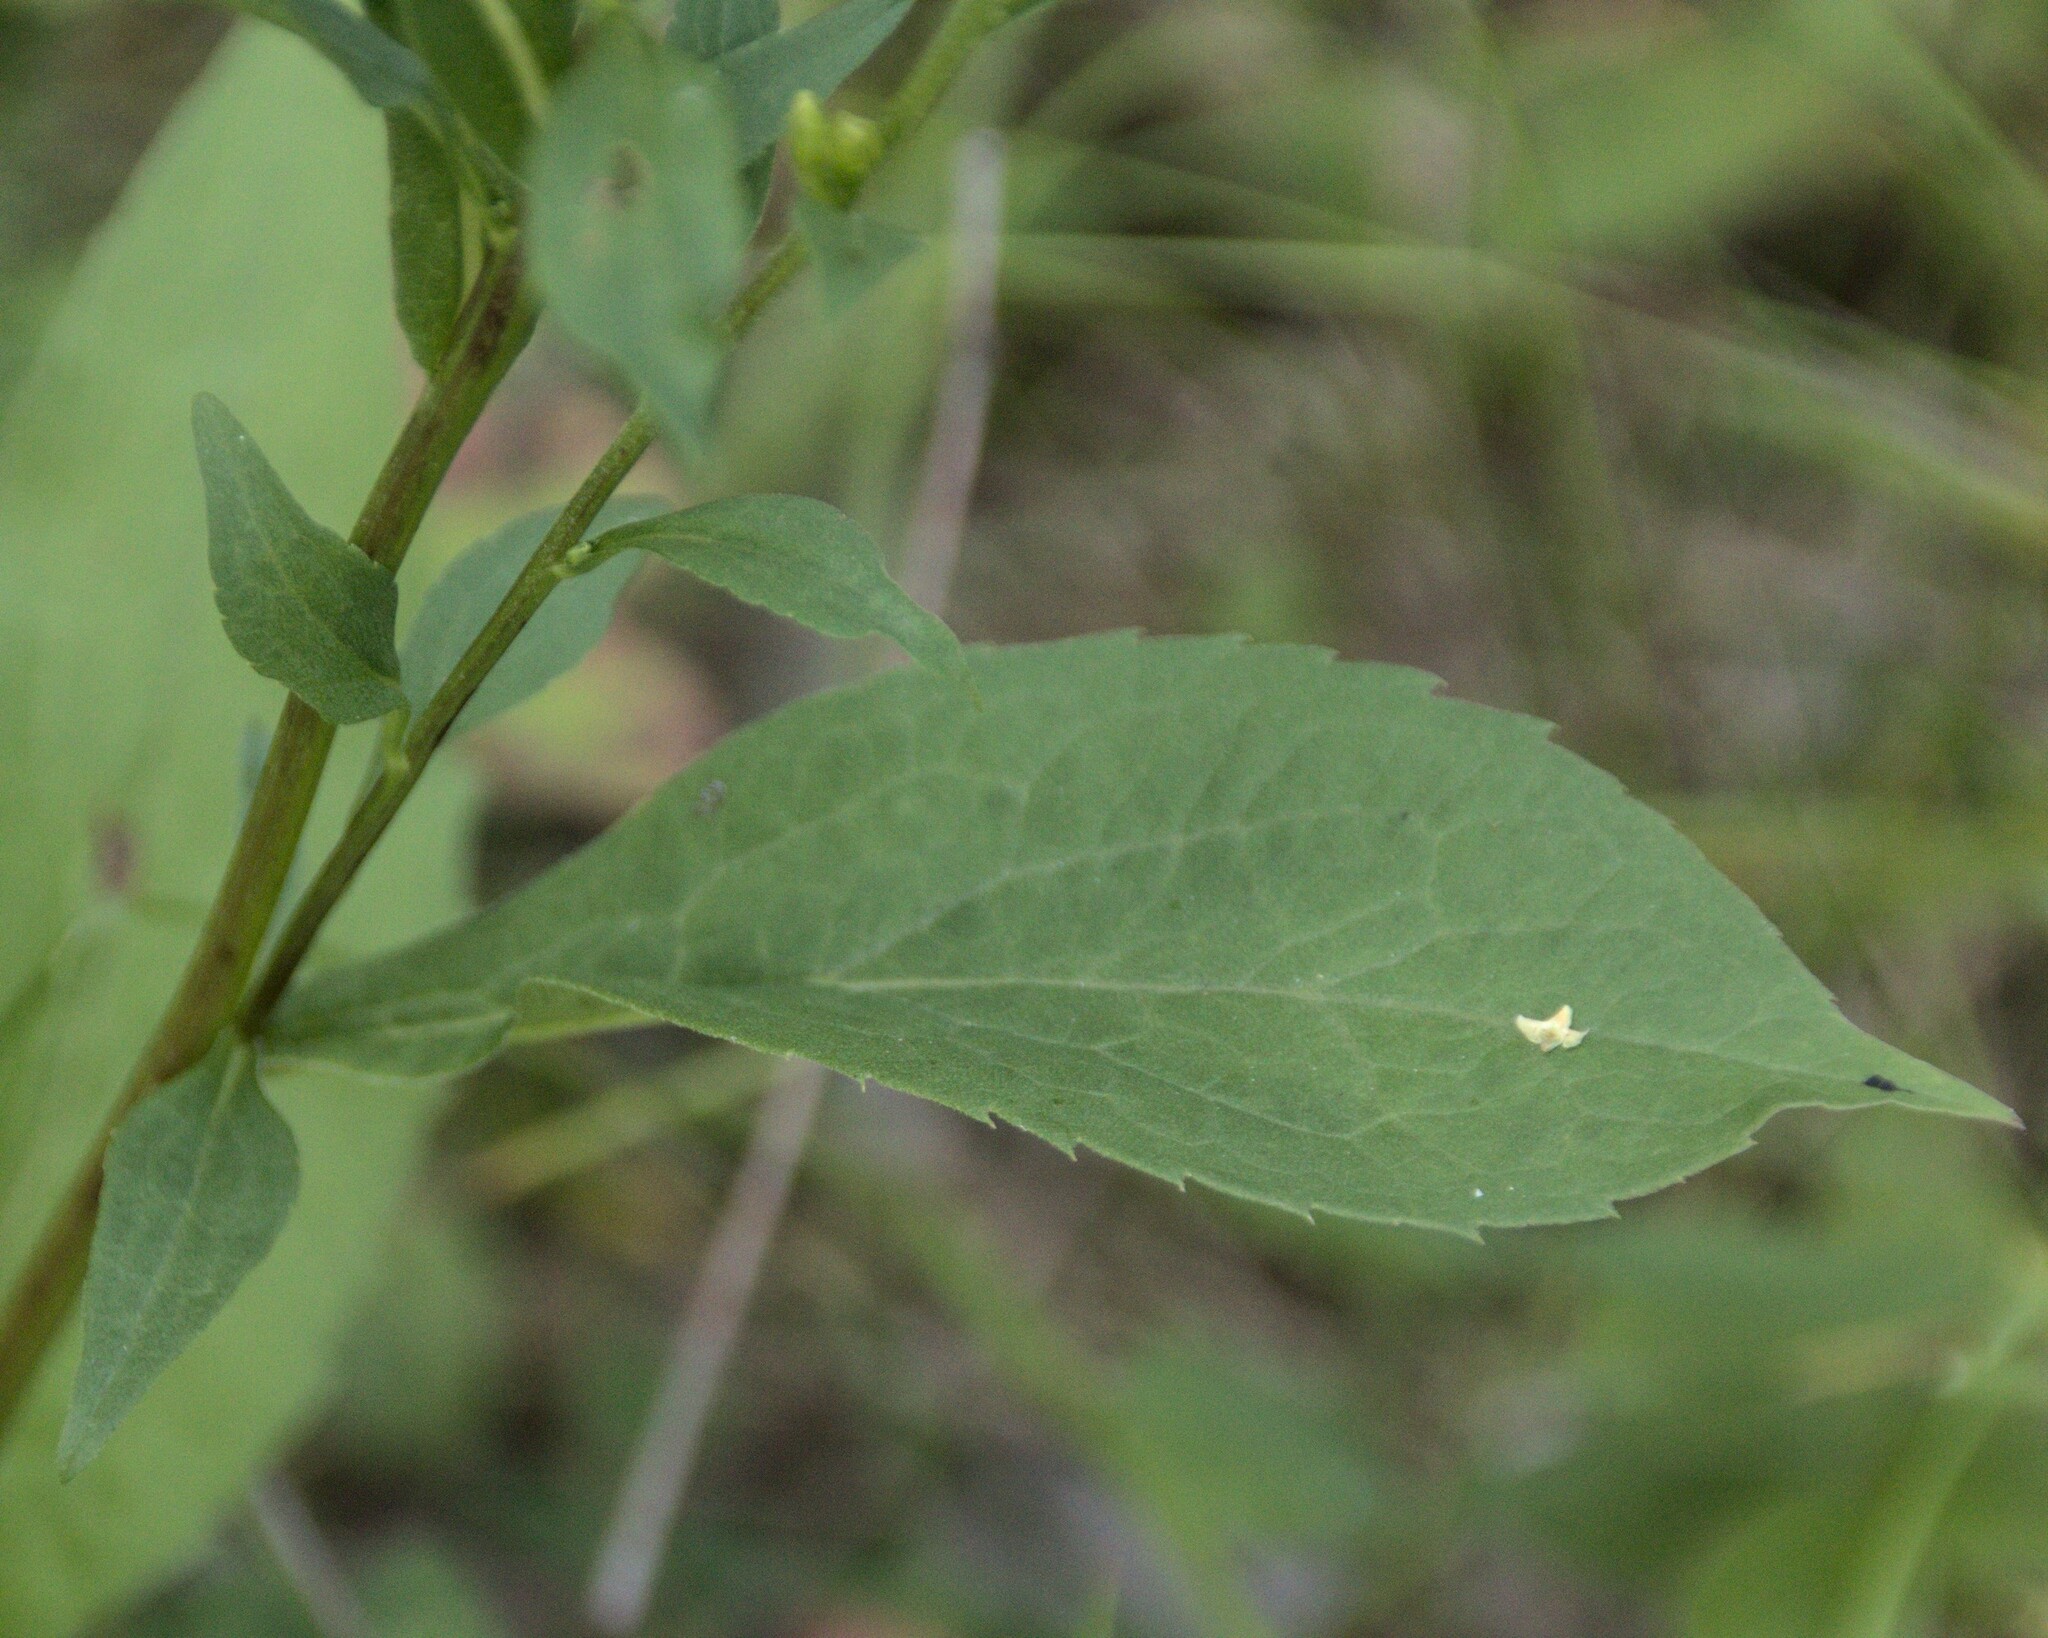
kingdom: Plantae
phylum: Tracheophyta
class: Magnoliopsida
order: Asterales
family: Asteraceae
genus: Solidago
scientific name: Solidago virgaurea
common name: Goldenrod
